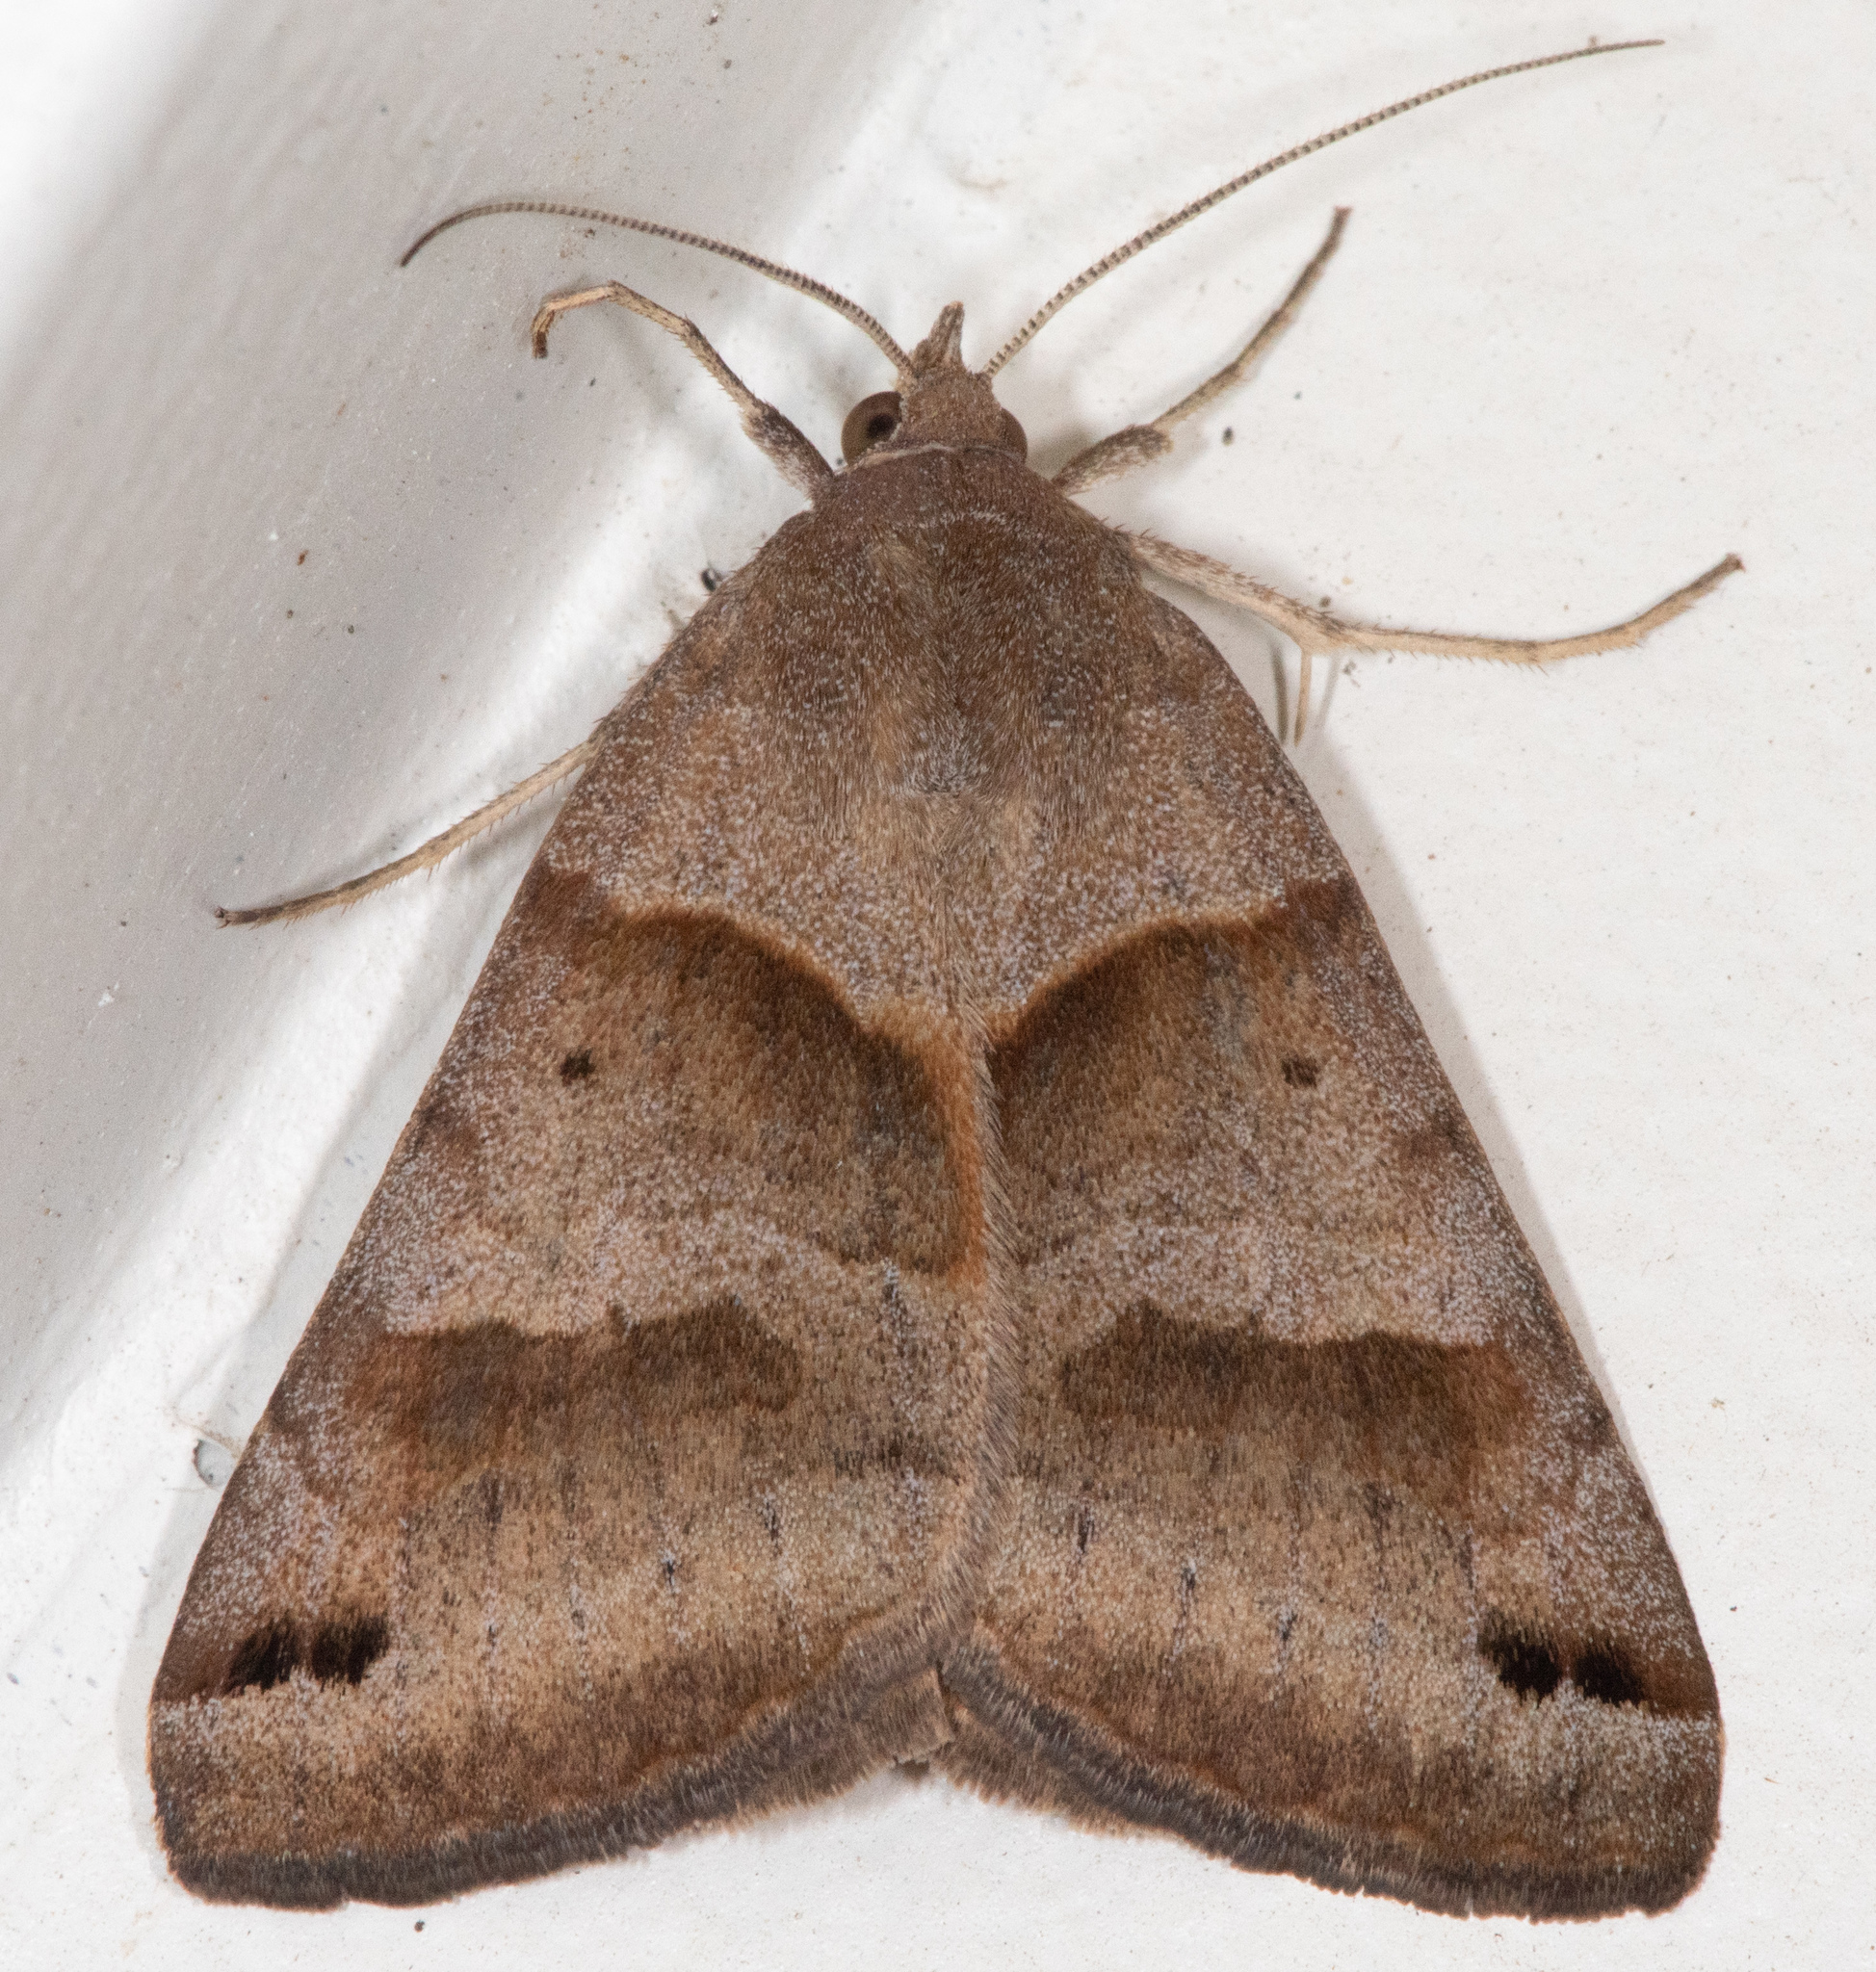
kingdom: Animalia
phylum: Arthropoda
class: Insecta
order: Lepidoptera
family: Erebidae
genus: Caenurgina
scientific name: Caenurgina erechtea
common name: Forage looper moth
